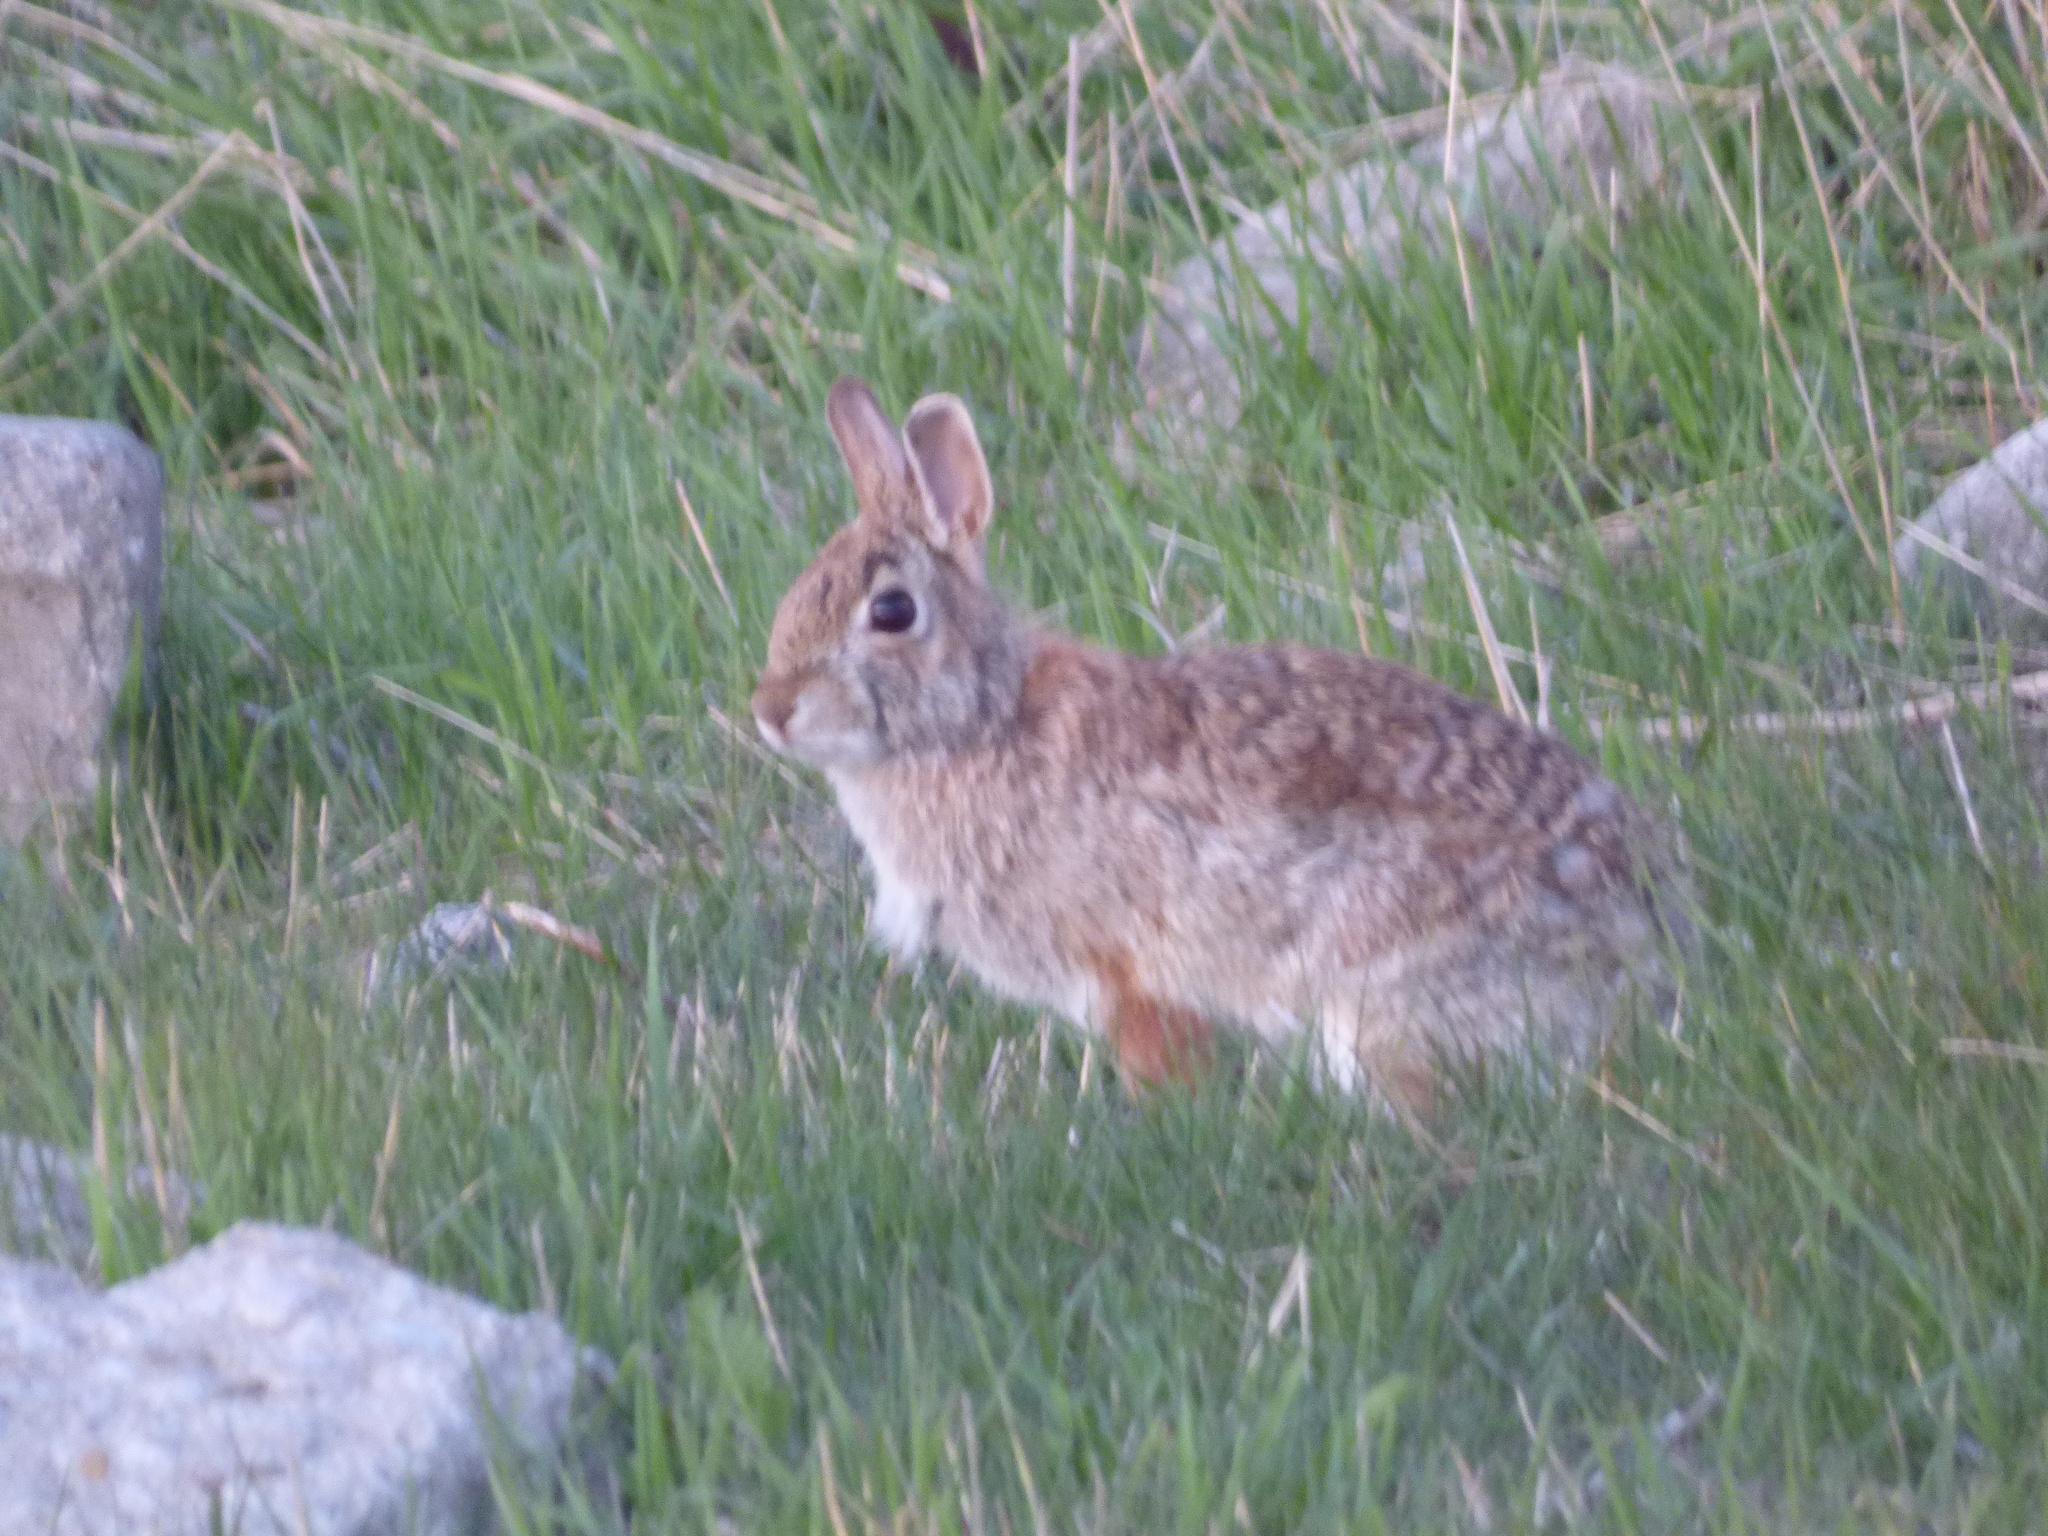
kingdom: Animalia
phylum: Chordata
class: Mammalia
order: Lagomorpha
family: Leporidae
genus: Sylvilagus
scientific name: Sylvilagus floridanus
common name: Eastern cottontail
